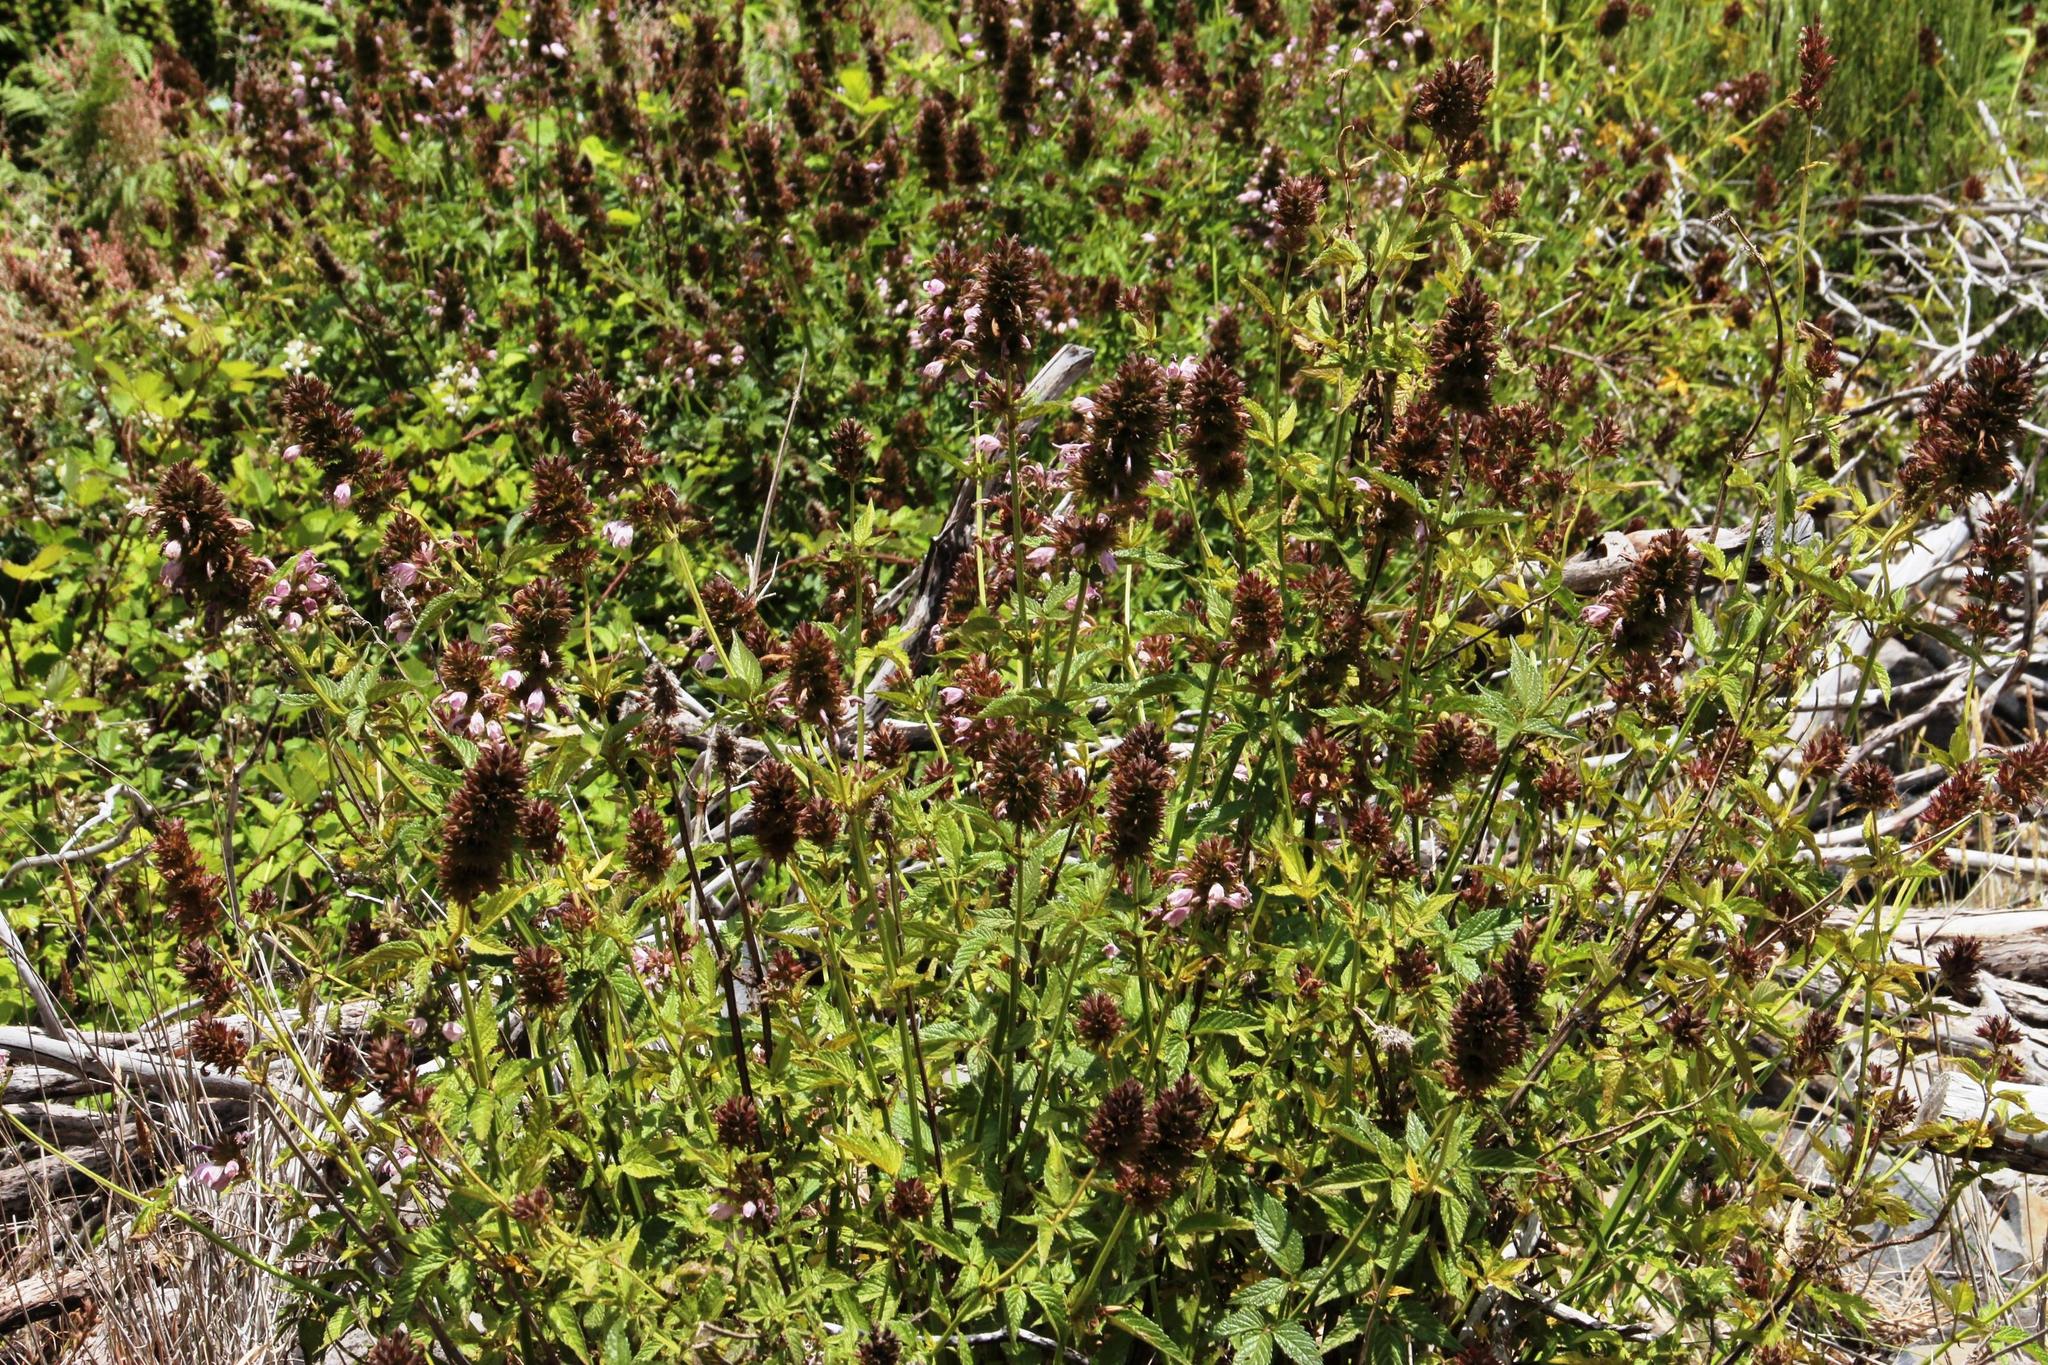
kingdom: Plantae
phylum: Tracheophyta
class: Magnoliopsida
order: Lamiales
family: Lamiaceae
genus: Cedronella
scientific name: Cedronella canariensis
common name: Canary islands balm
